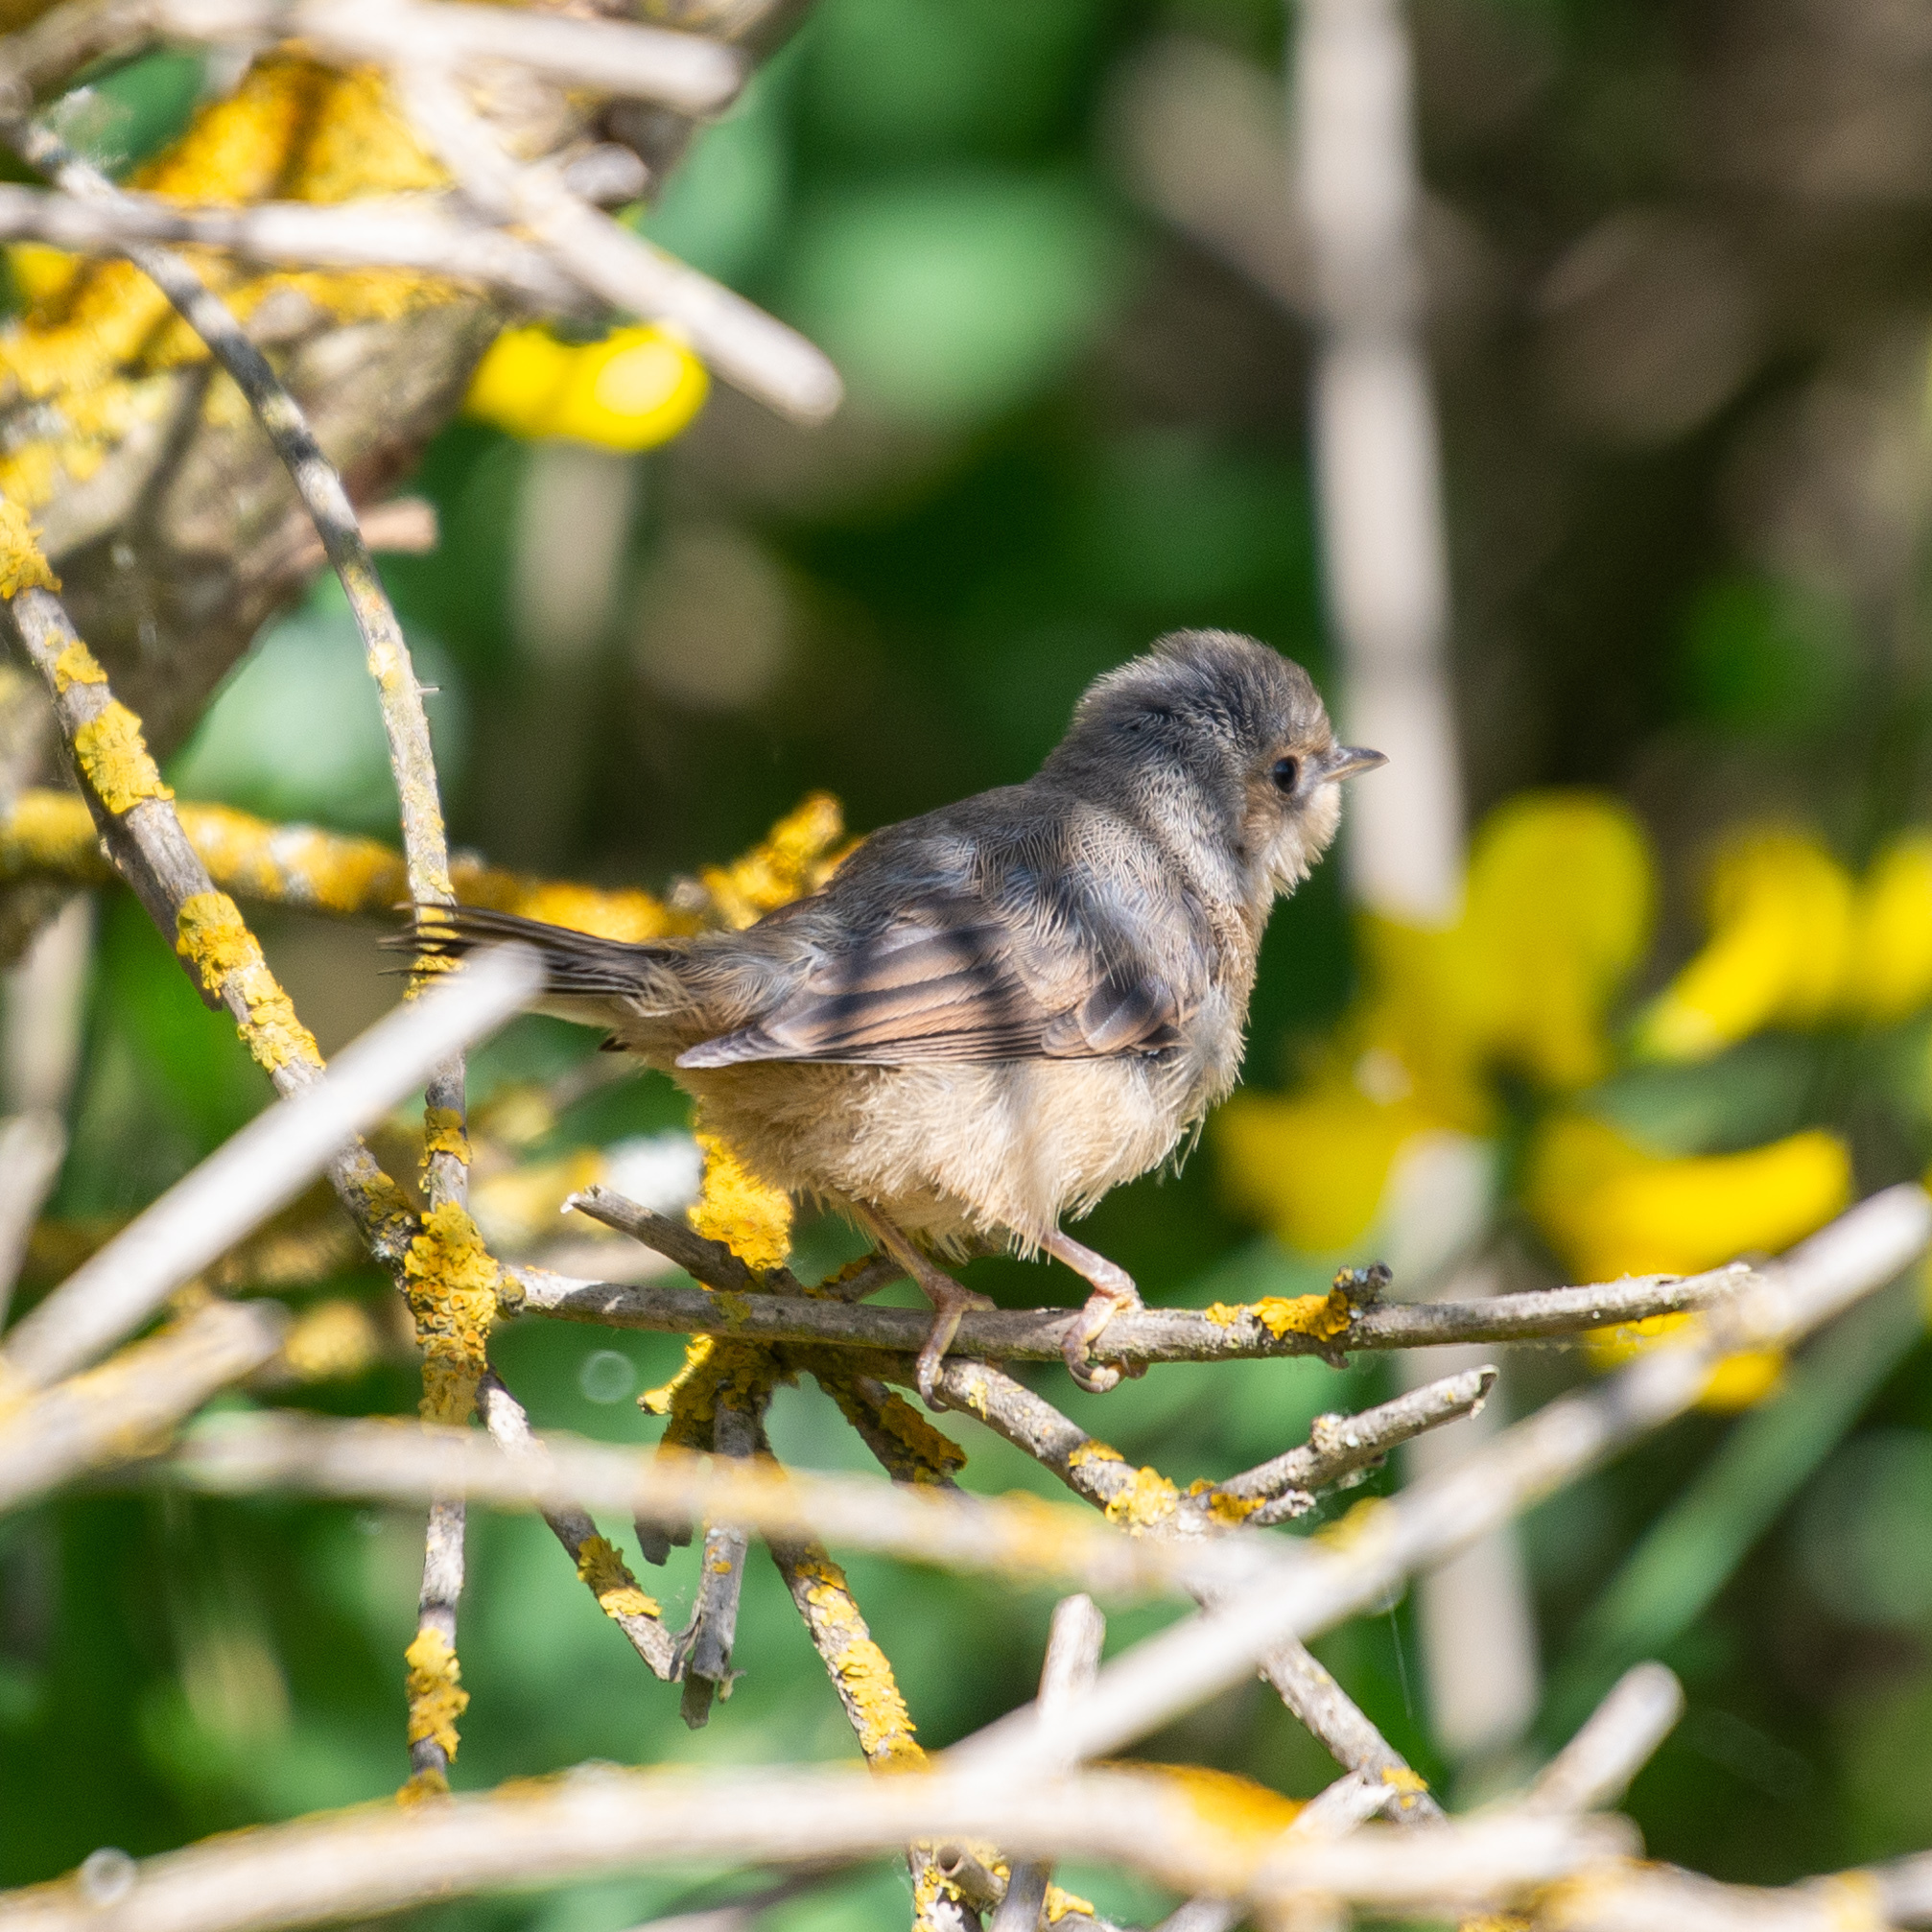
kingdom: Animalia
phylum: Chordata
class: Aves
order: Passeriformes
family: Sylviidae
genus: Curruca
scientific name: Curruca iberiae
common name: Western subalpine warbler
